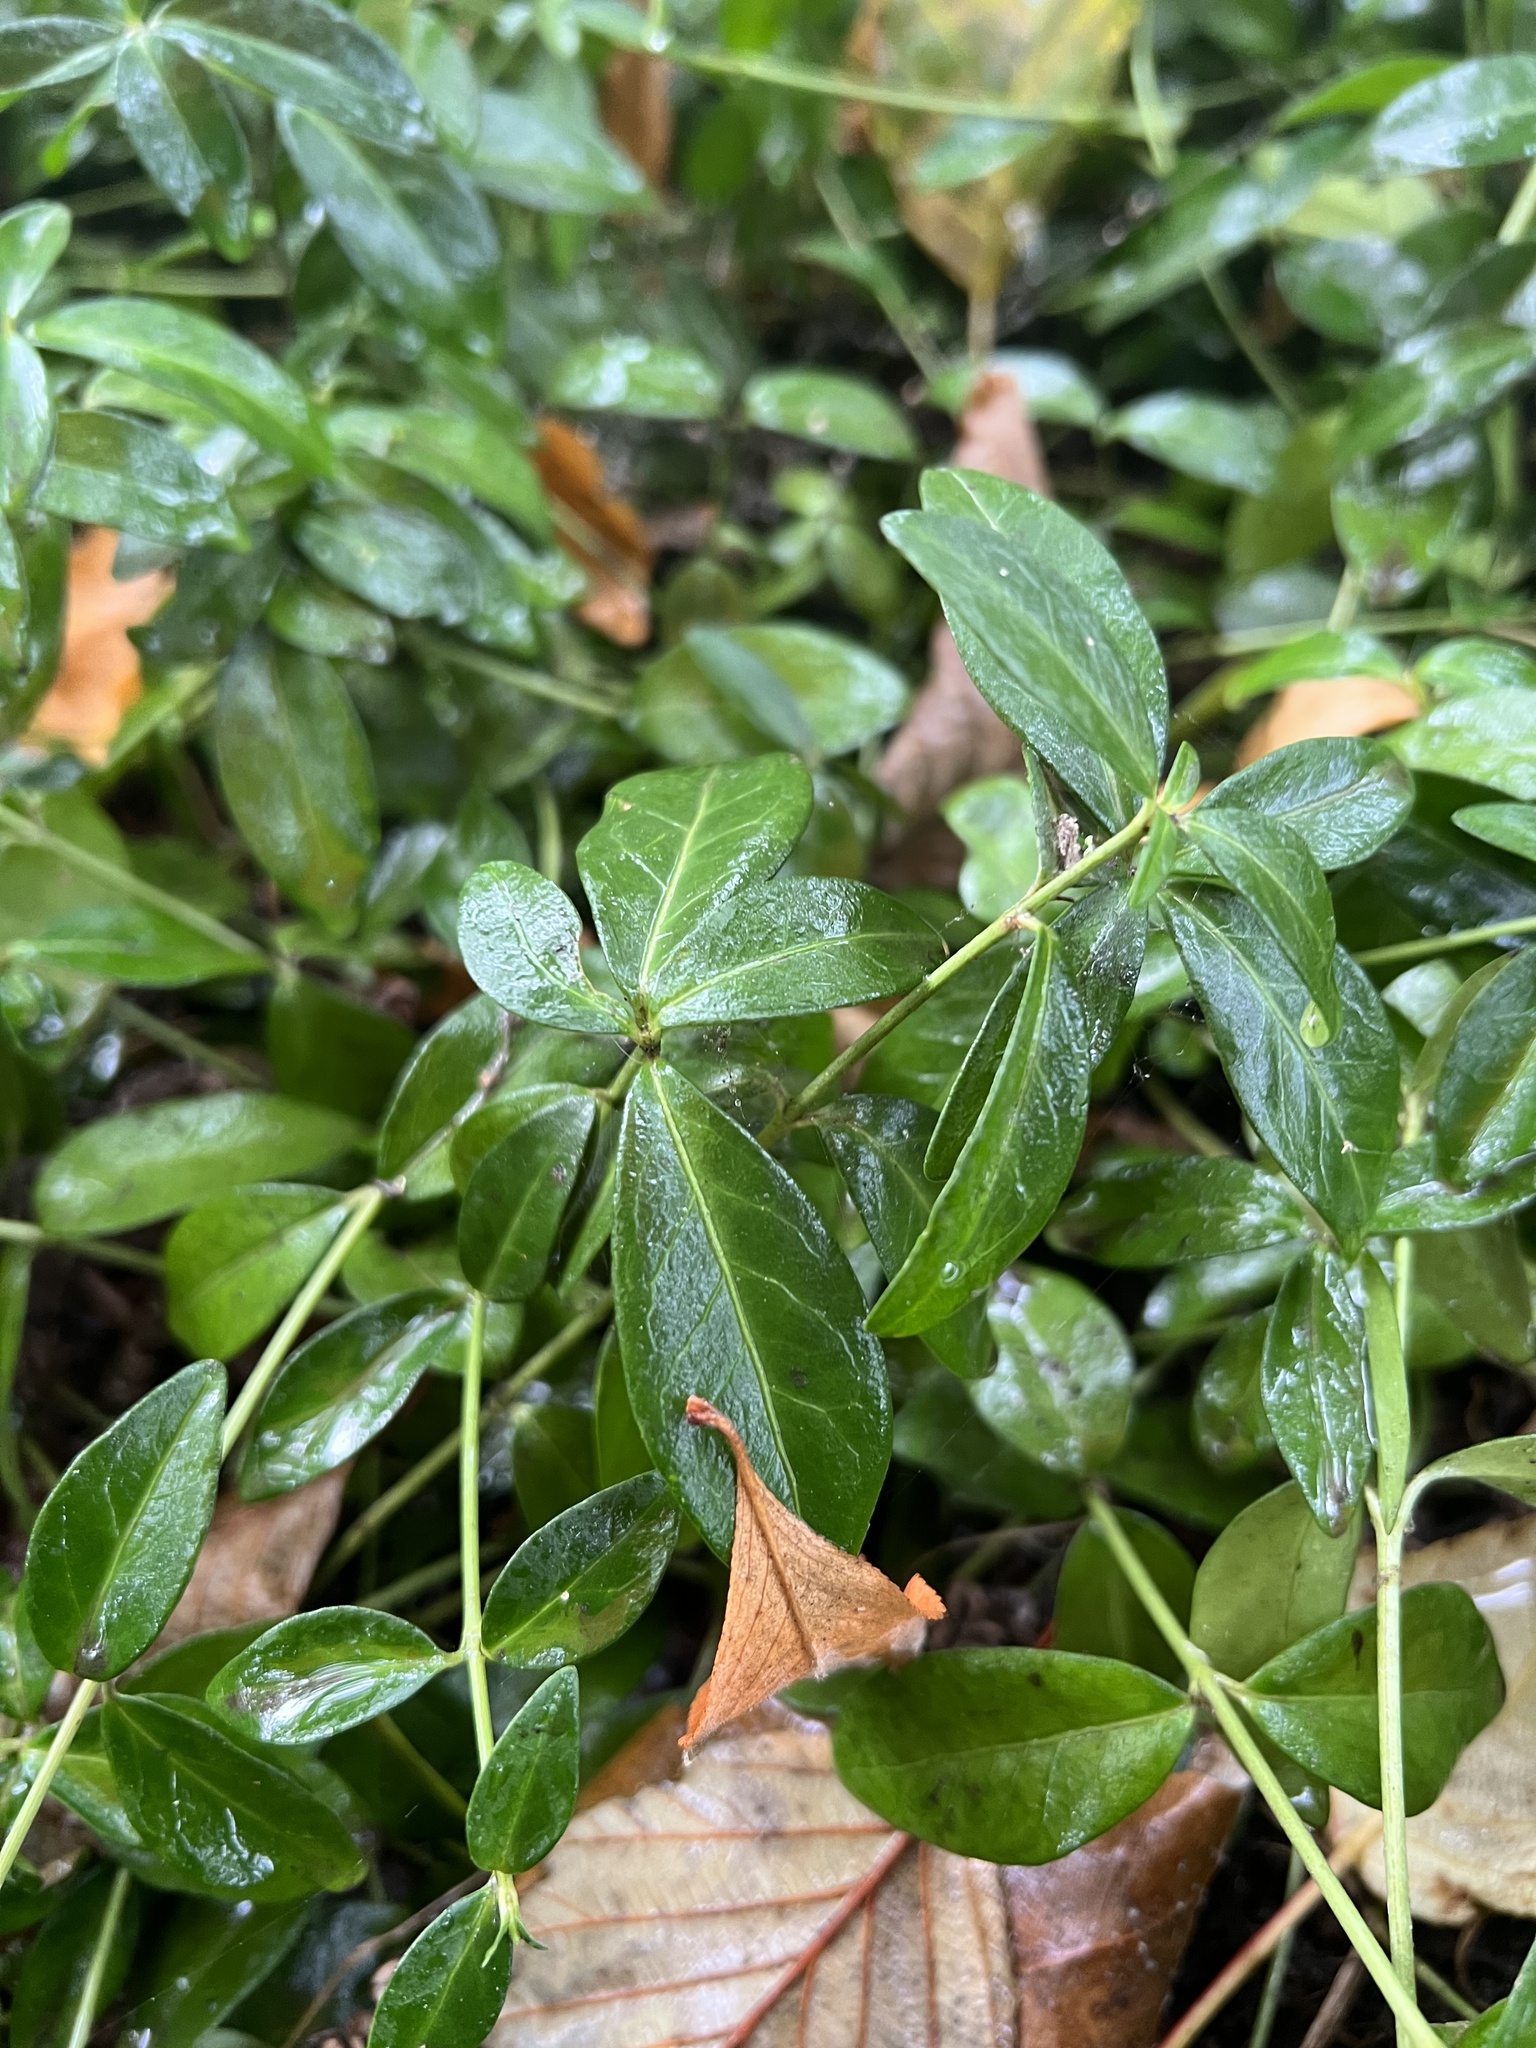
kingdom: Plantae
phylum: Tracheophyta
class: Magnoliopsida
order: Gentianales
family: Apocynaceae
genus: Vinca
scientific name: Vinca minor
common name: Lesser periwinkle
